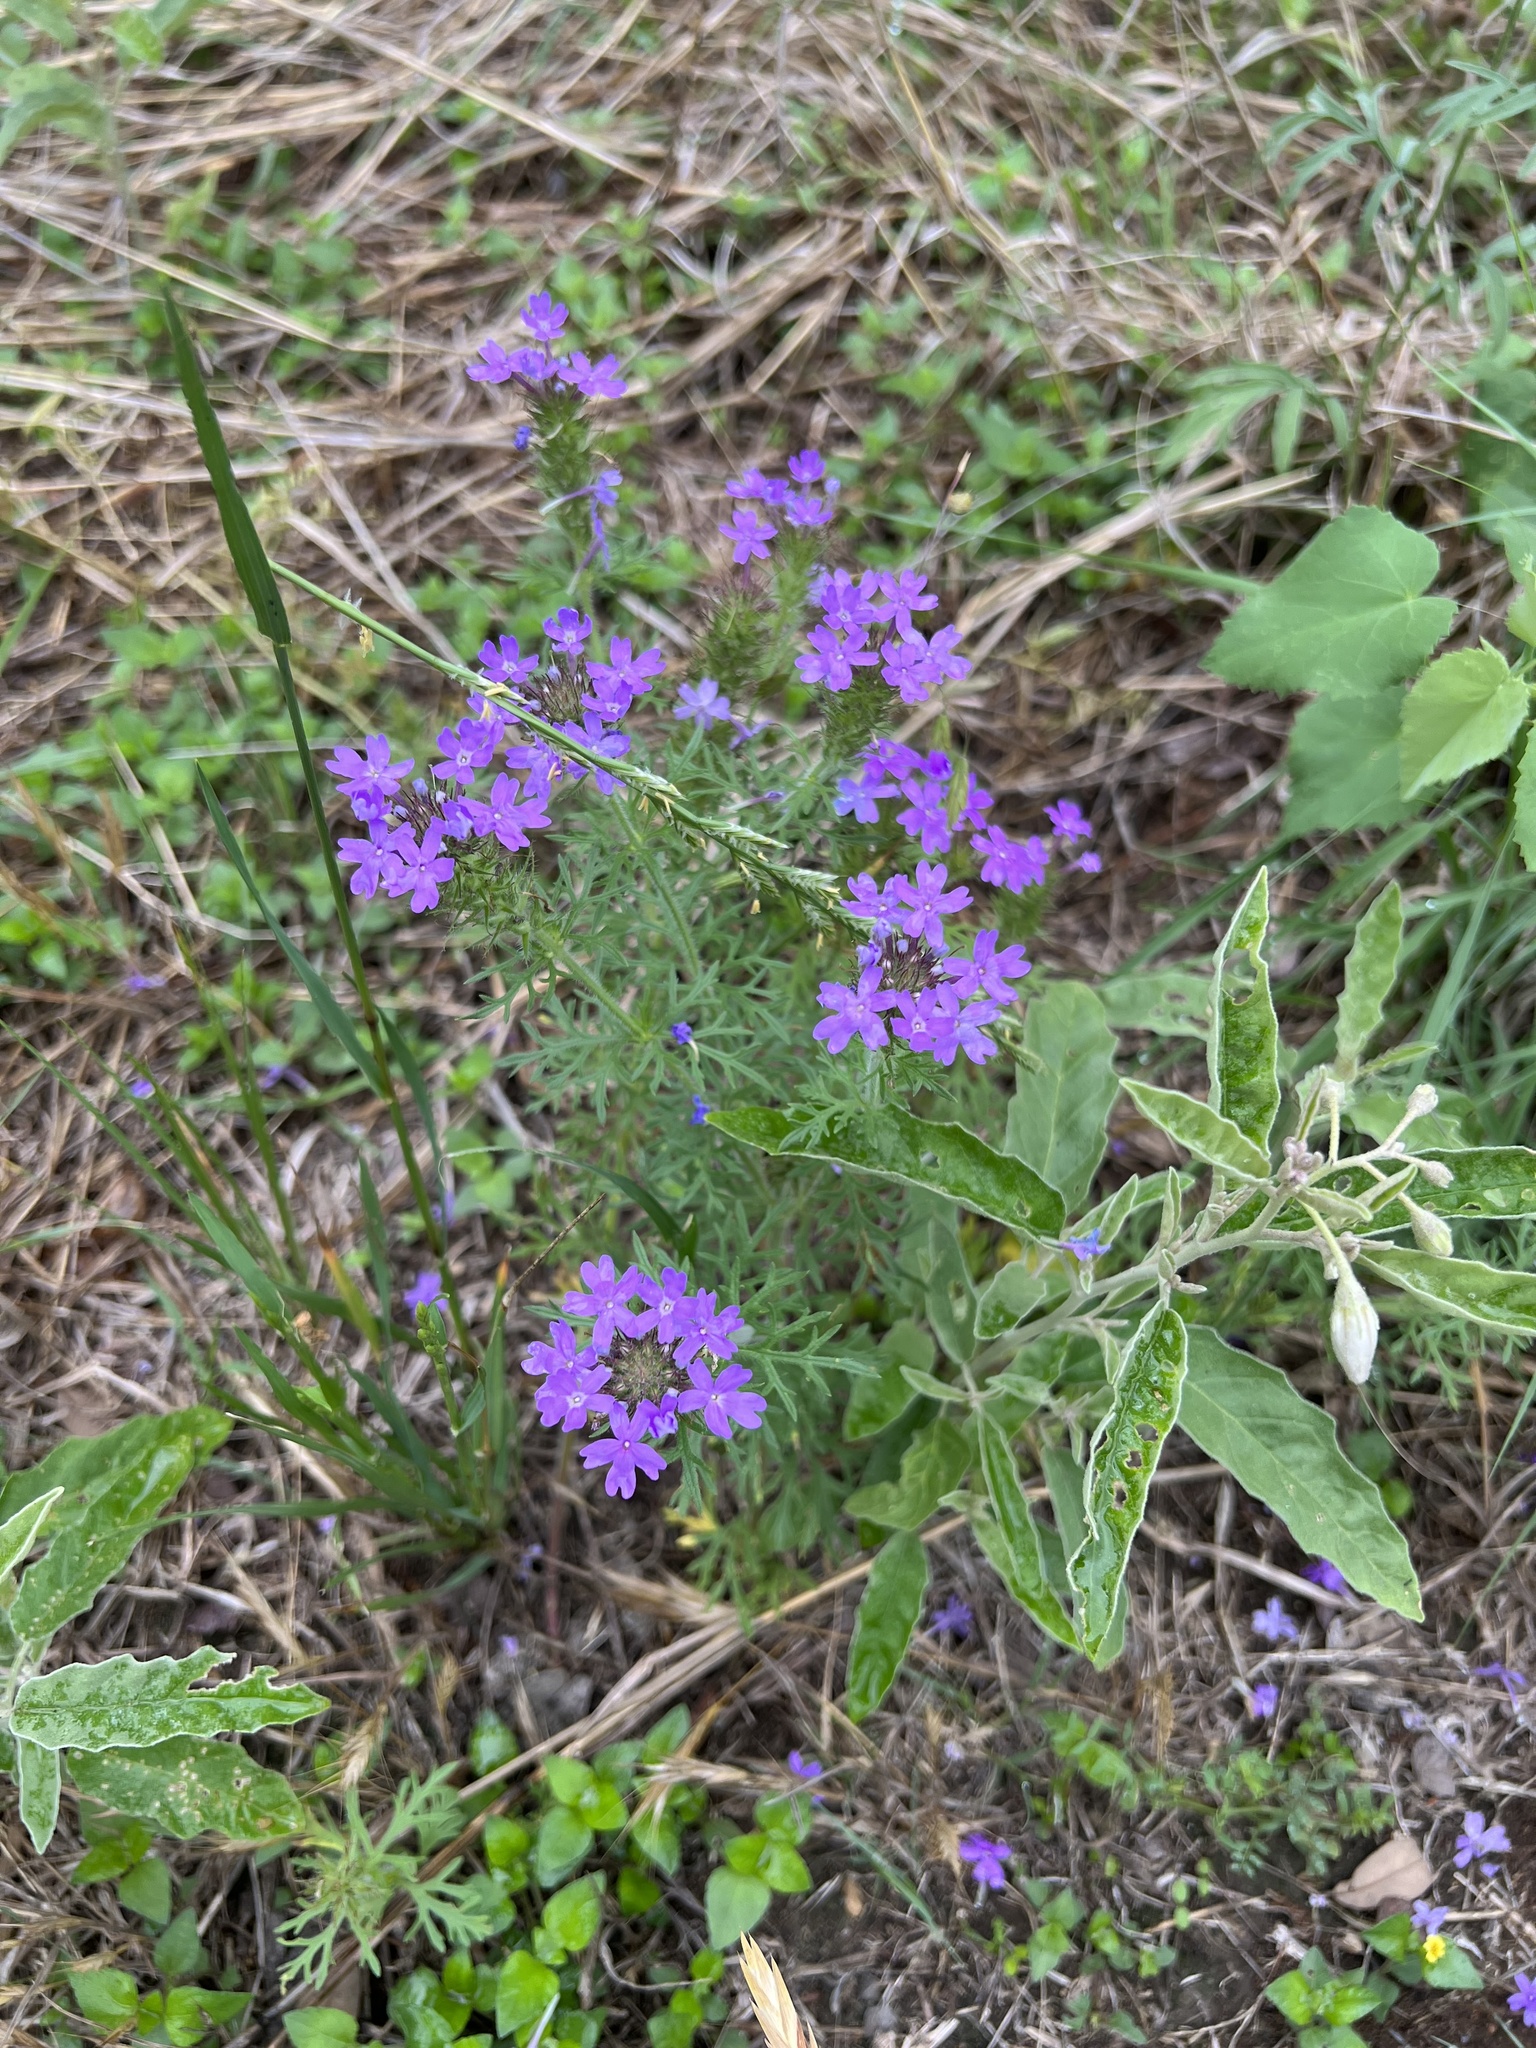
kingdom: Plantae
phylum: Tracheophyta
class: Magnoliopsida
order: Lamiales
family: Verbenaceae
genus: Verbena
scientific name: Verbena bipinnatifida
